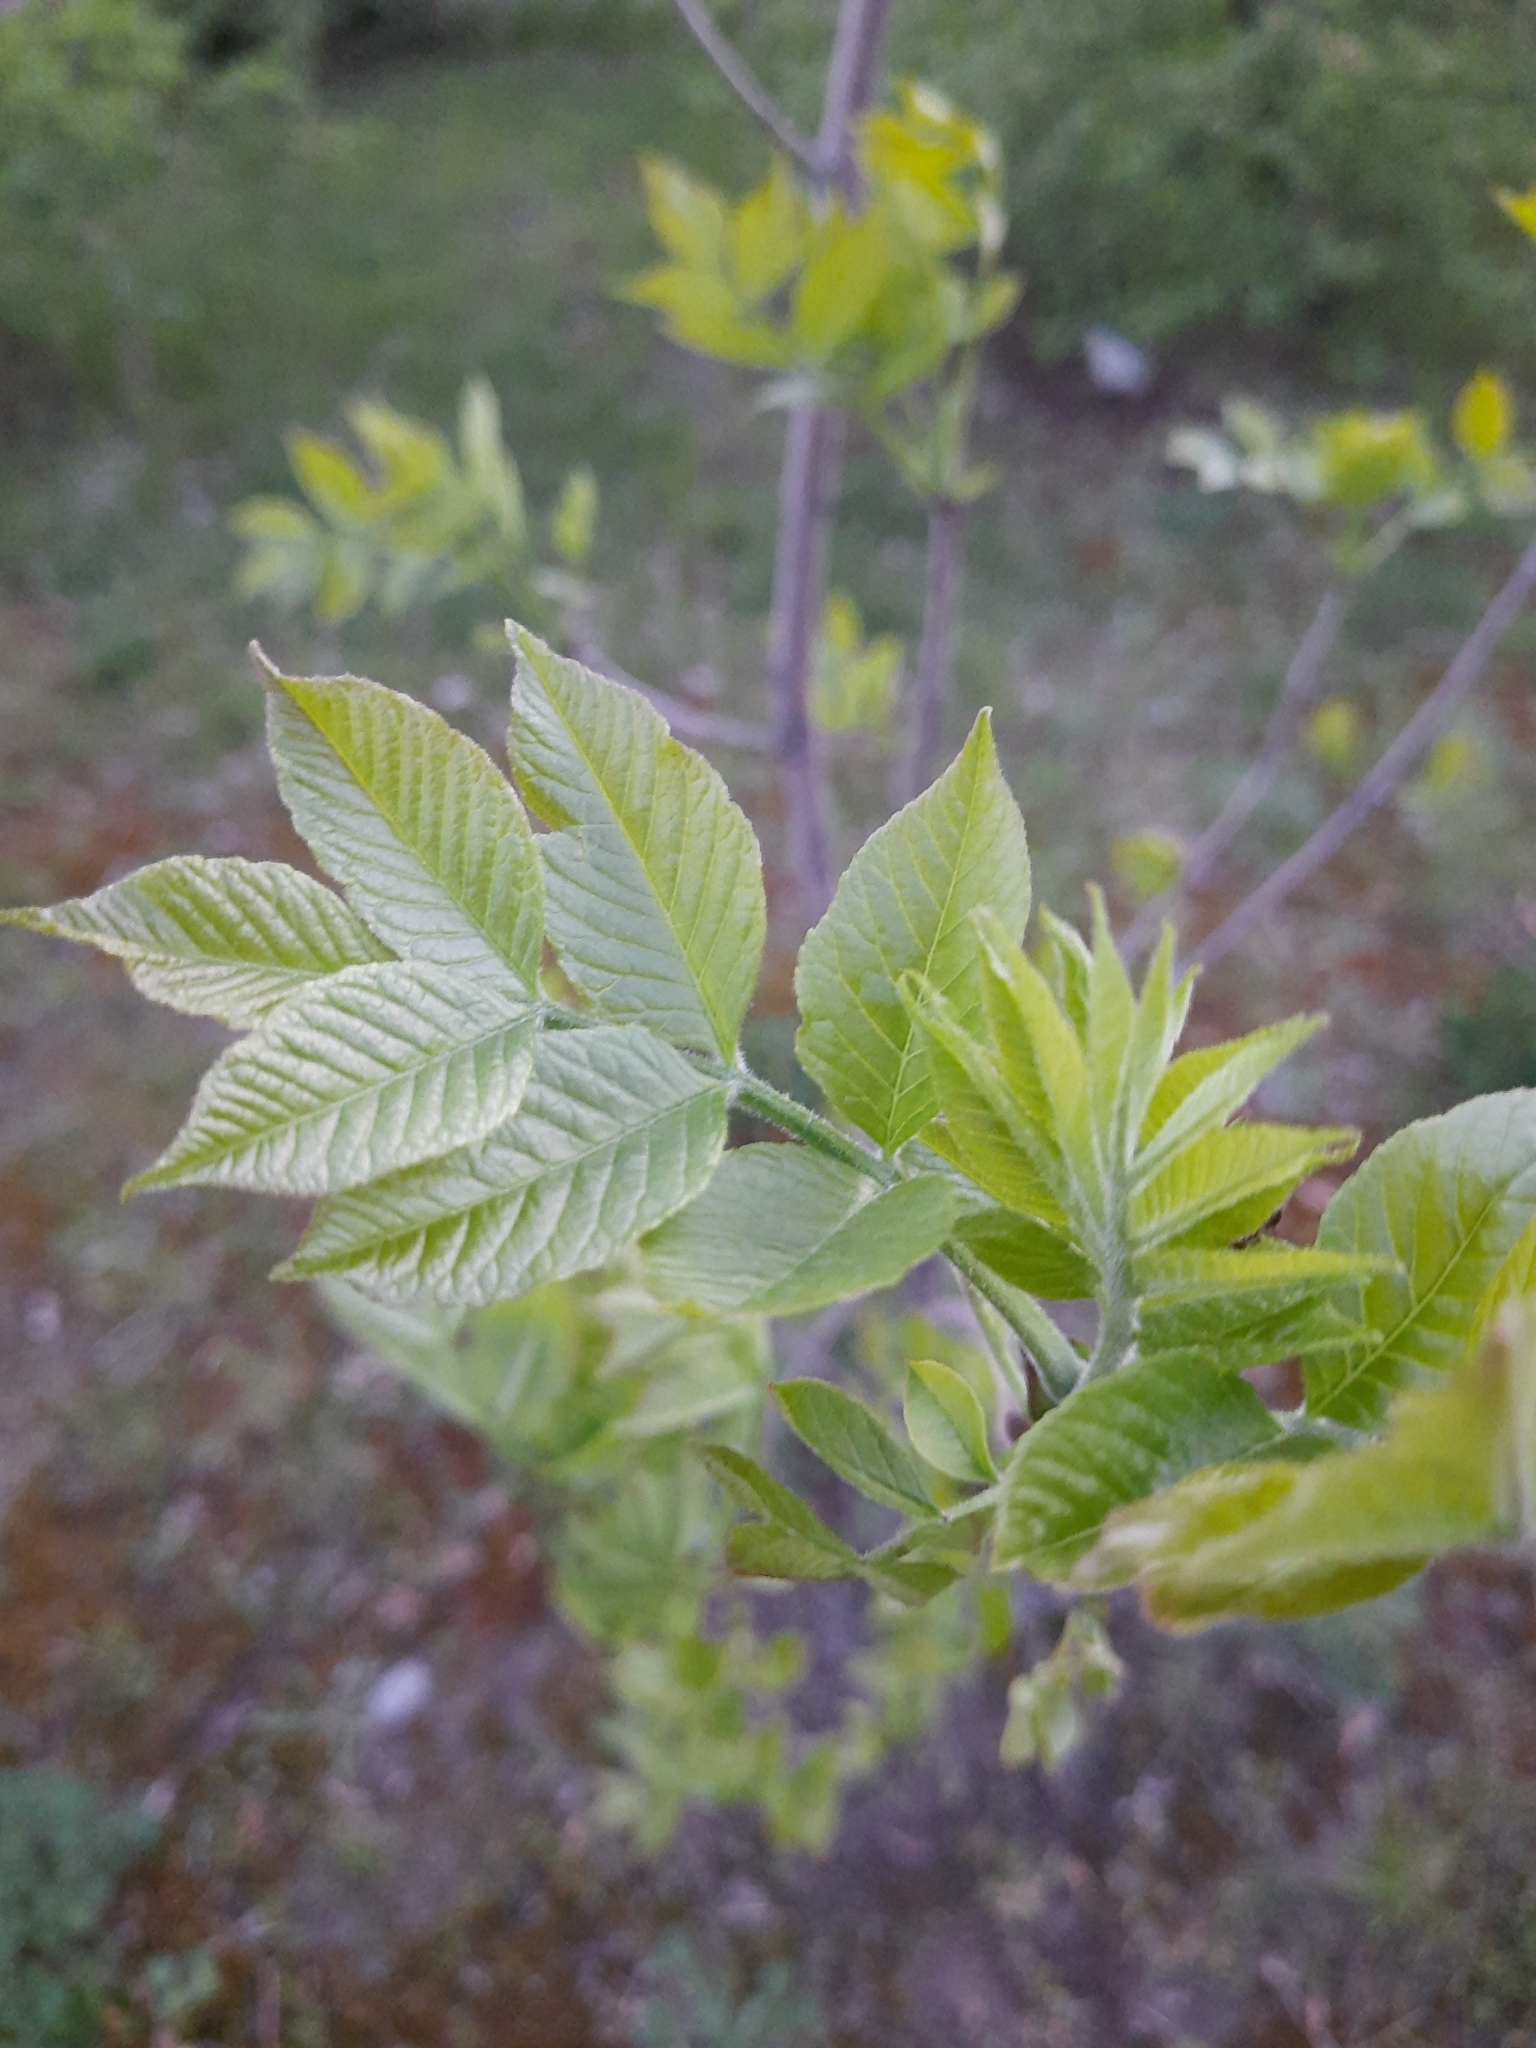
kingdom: Plantae
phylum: Tracheophyta
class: Magnoliopsida
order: Lamiales
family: Oleaceae
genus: Fraxinus
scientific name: Fraxinus pennsylvanica
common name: Green ash
